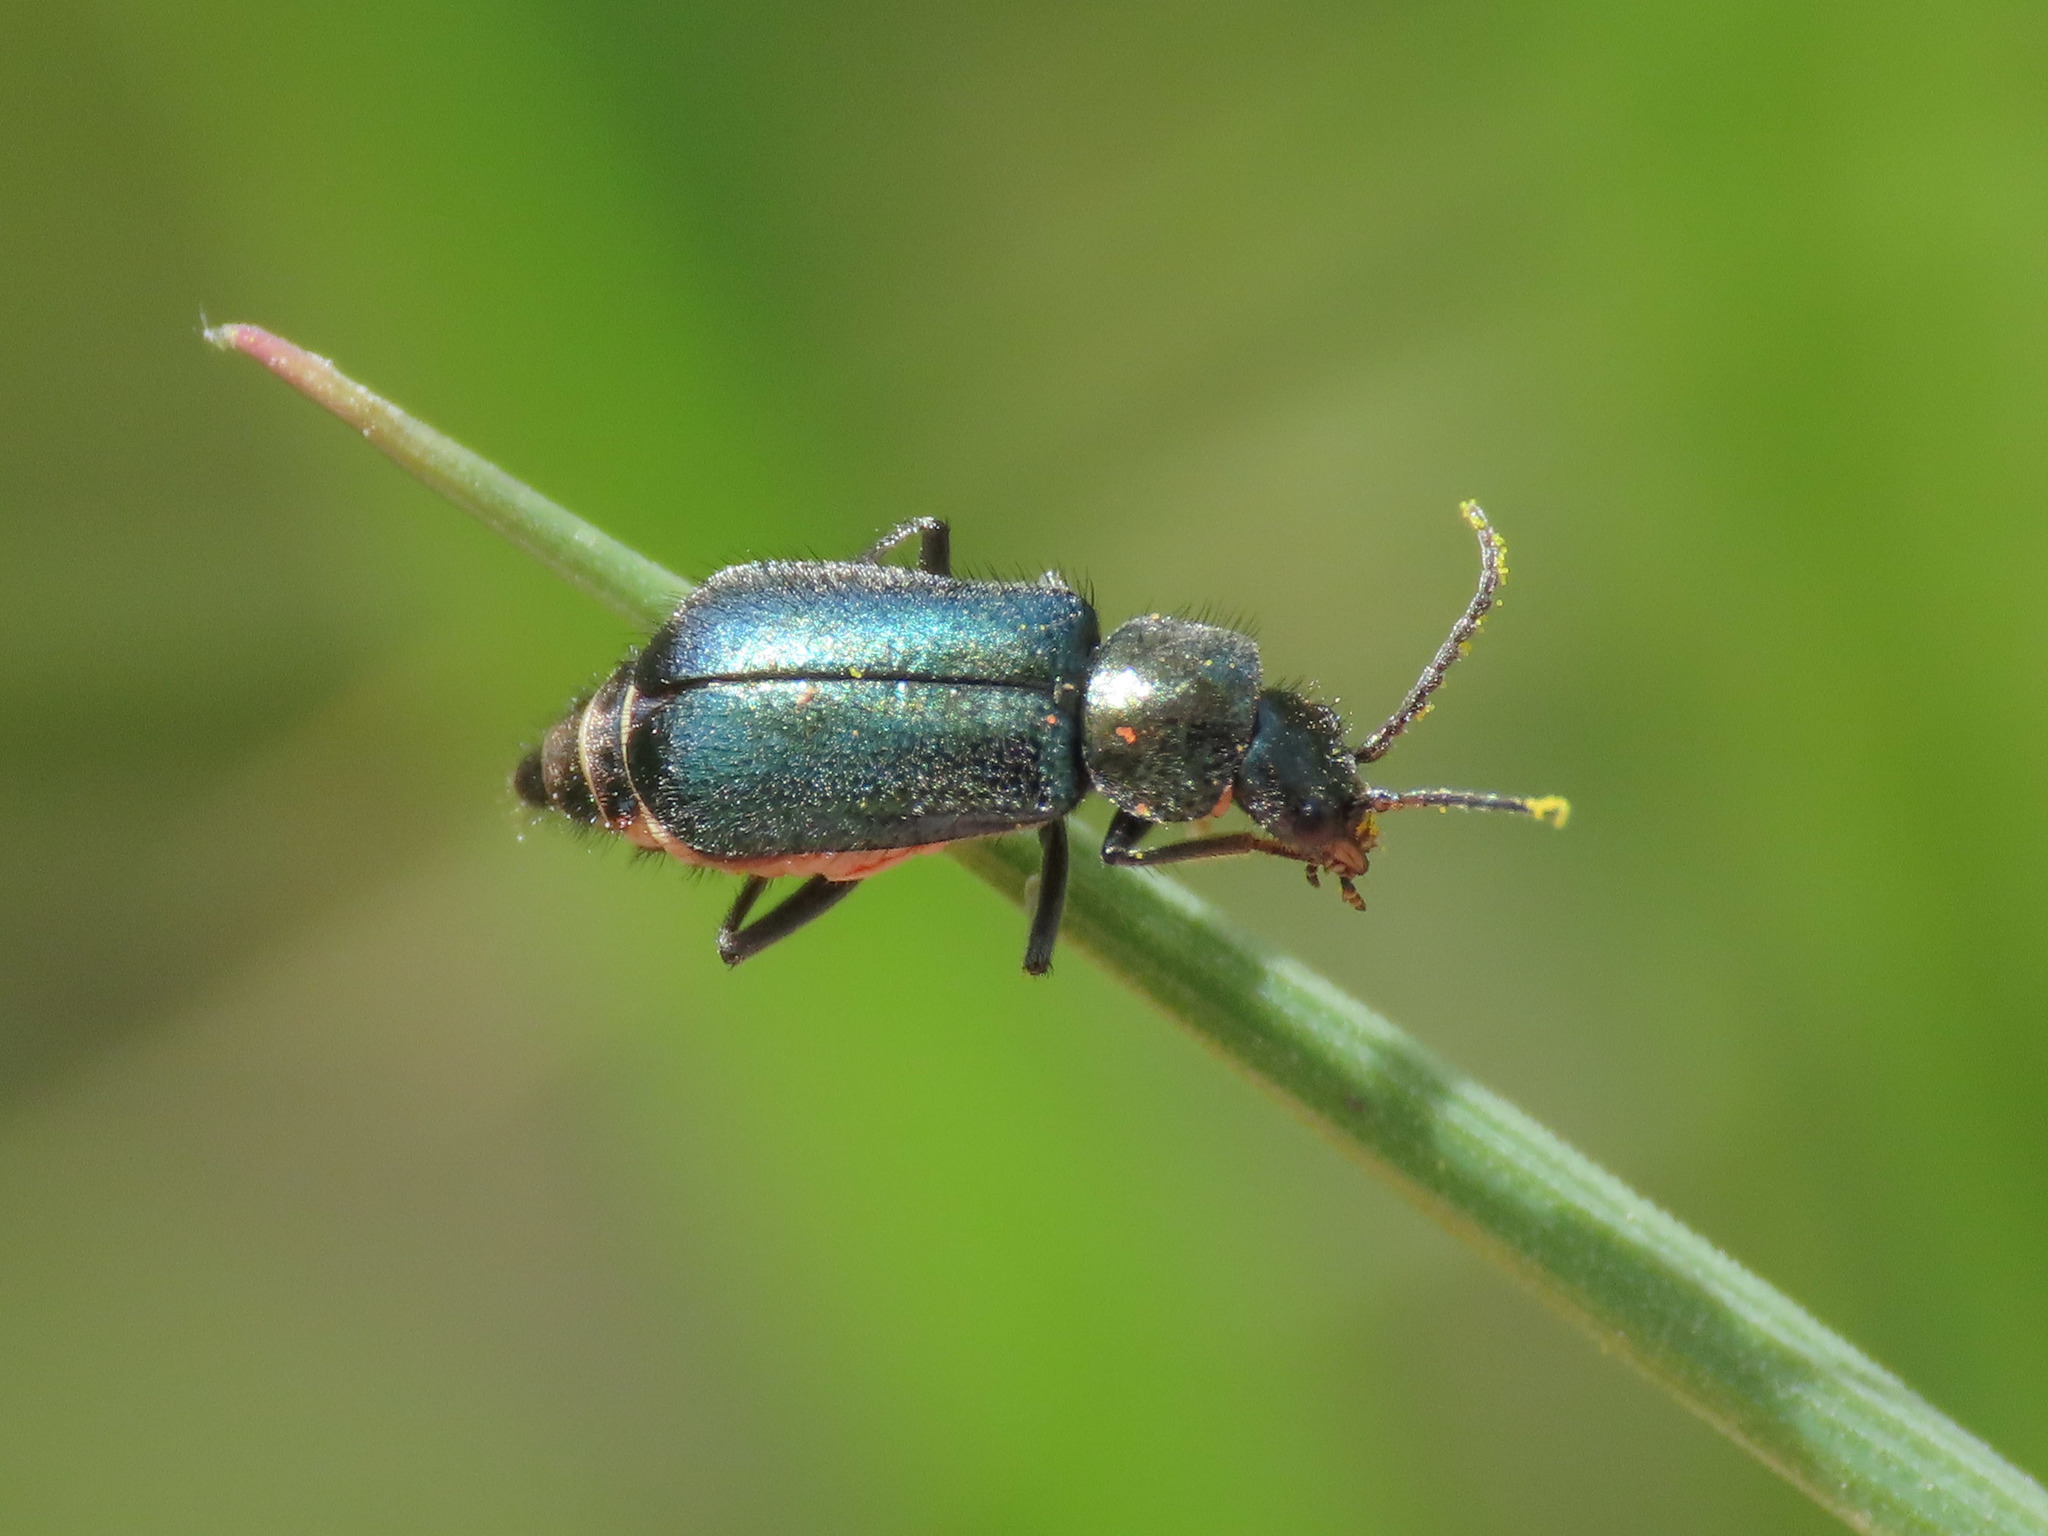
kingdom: Animalia
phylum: Arthropoda
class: Insecta
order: Coleoptera
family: Malachiidae
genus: Clanoptilus
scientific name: Clanoptilus affinis
